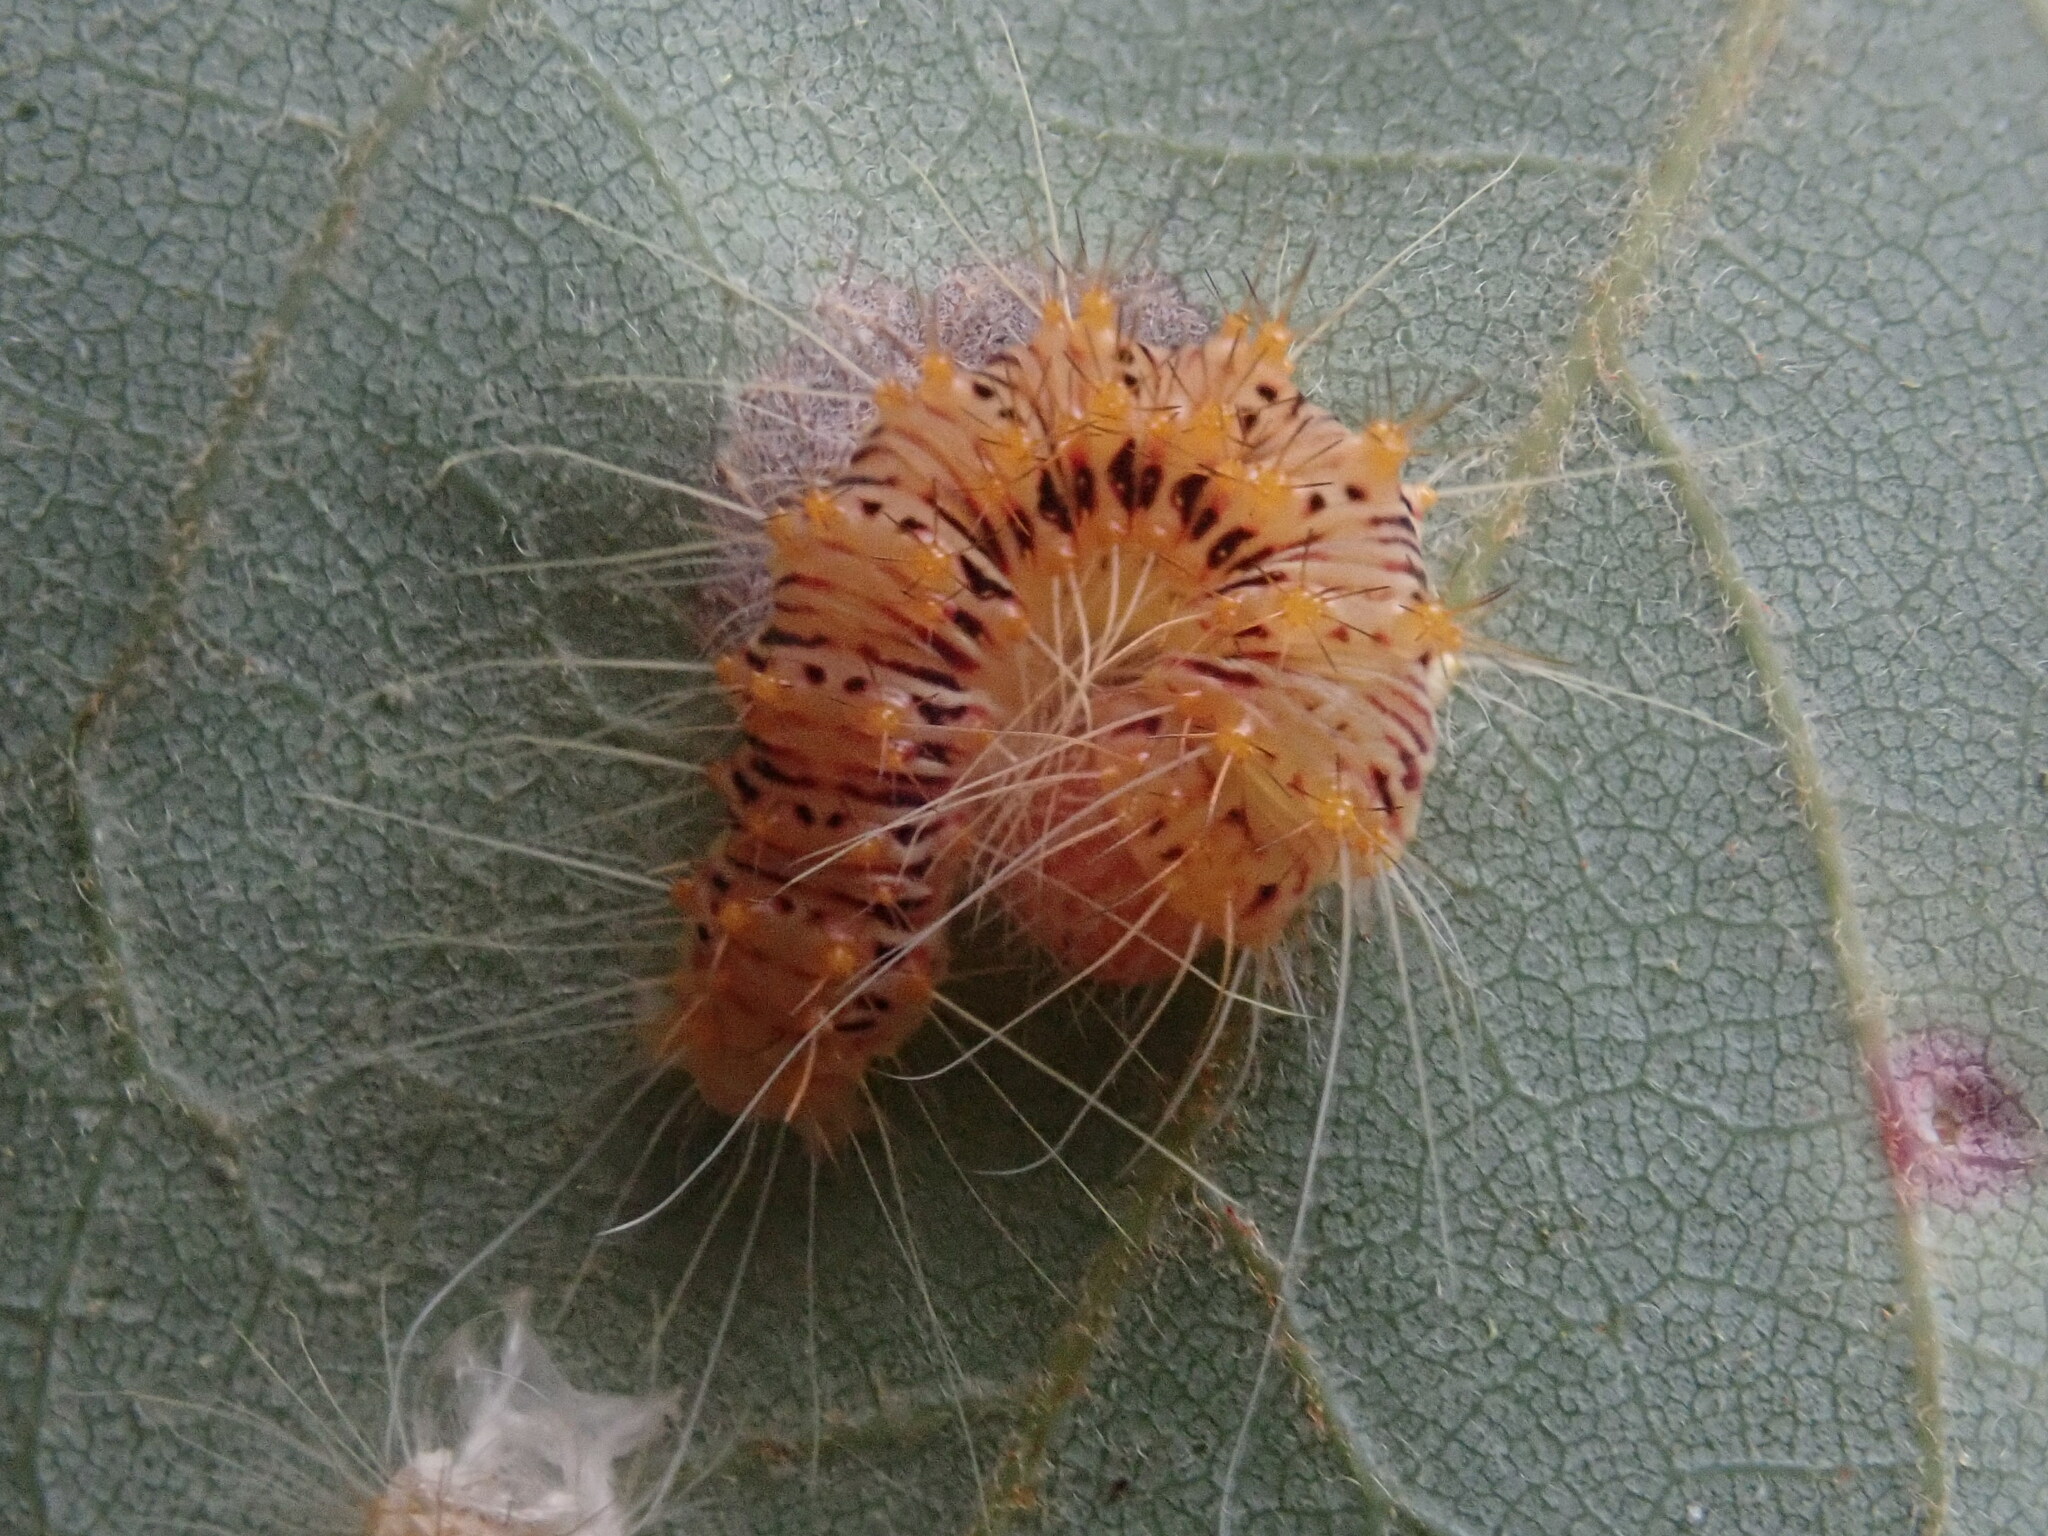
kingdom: Animalia
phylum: Arthropoda
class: Insecta
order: Lepidoptera
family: Noctuidae
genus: Acronicta
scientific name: Acronicta retardata
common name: Maple dagger
